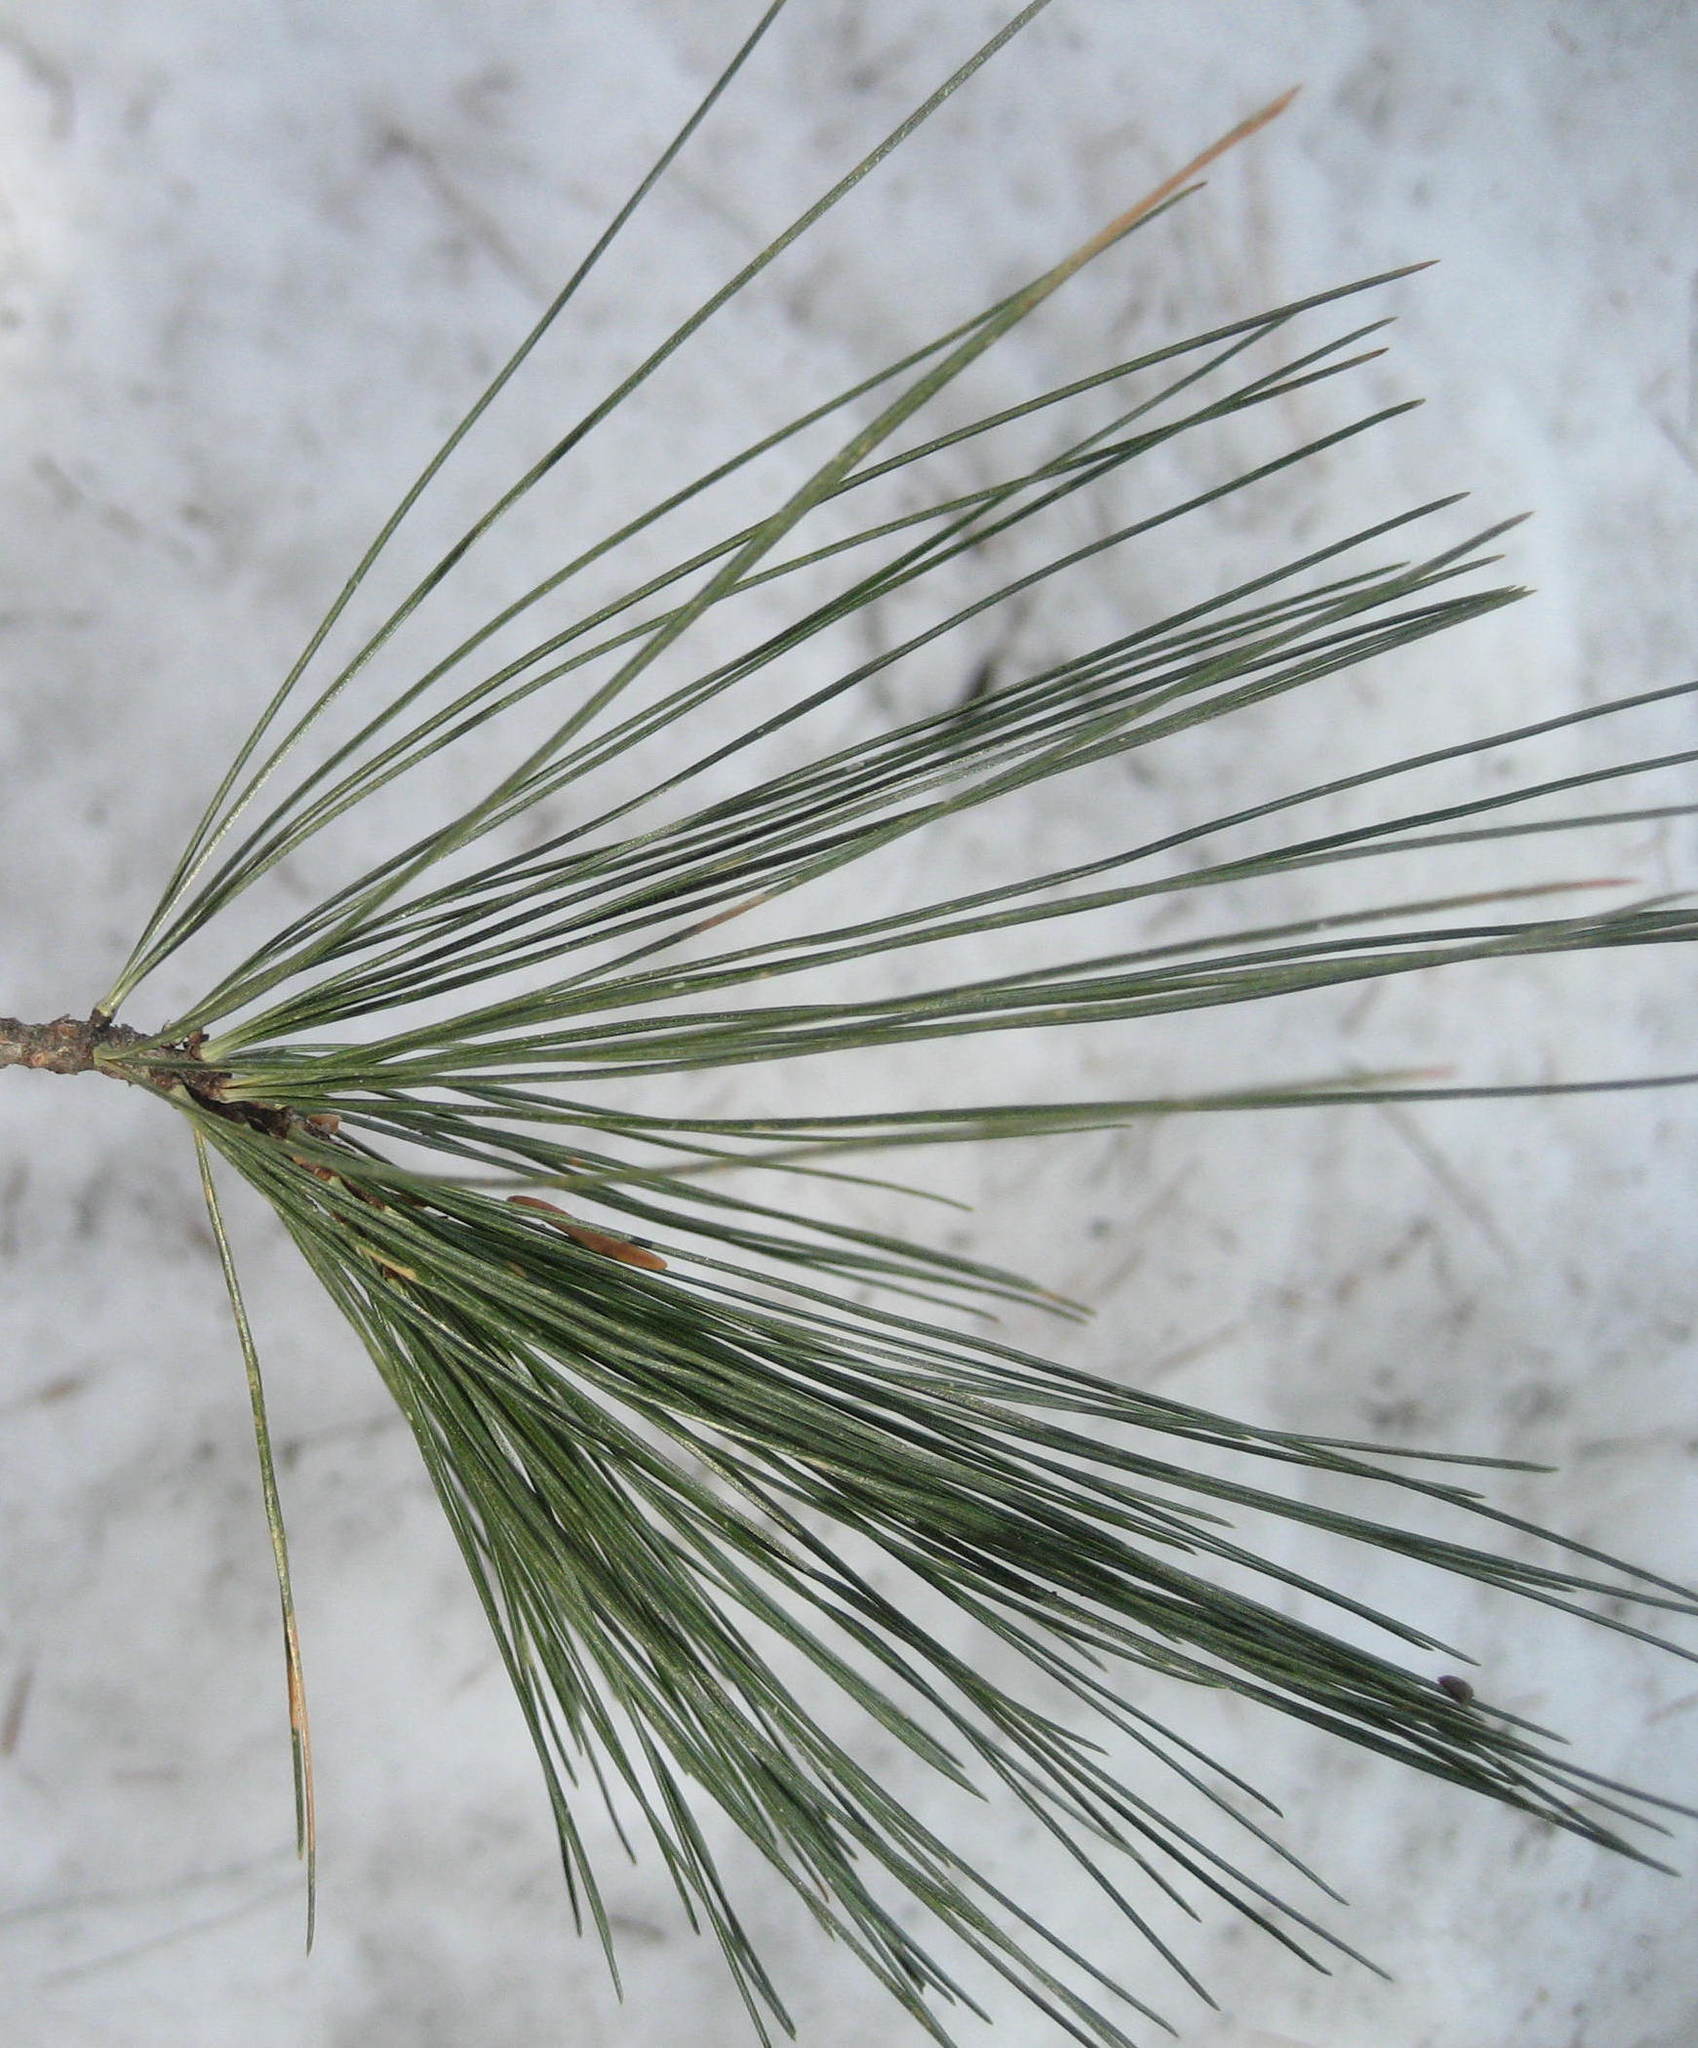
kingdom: Plantae
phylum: Tracheophyta
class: Pinopsida
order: Pinales
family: Pinaceae
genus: Pinus
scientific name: Pinus strobus
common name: Weymouth pine
